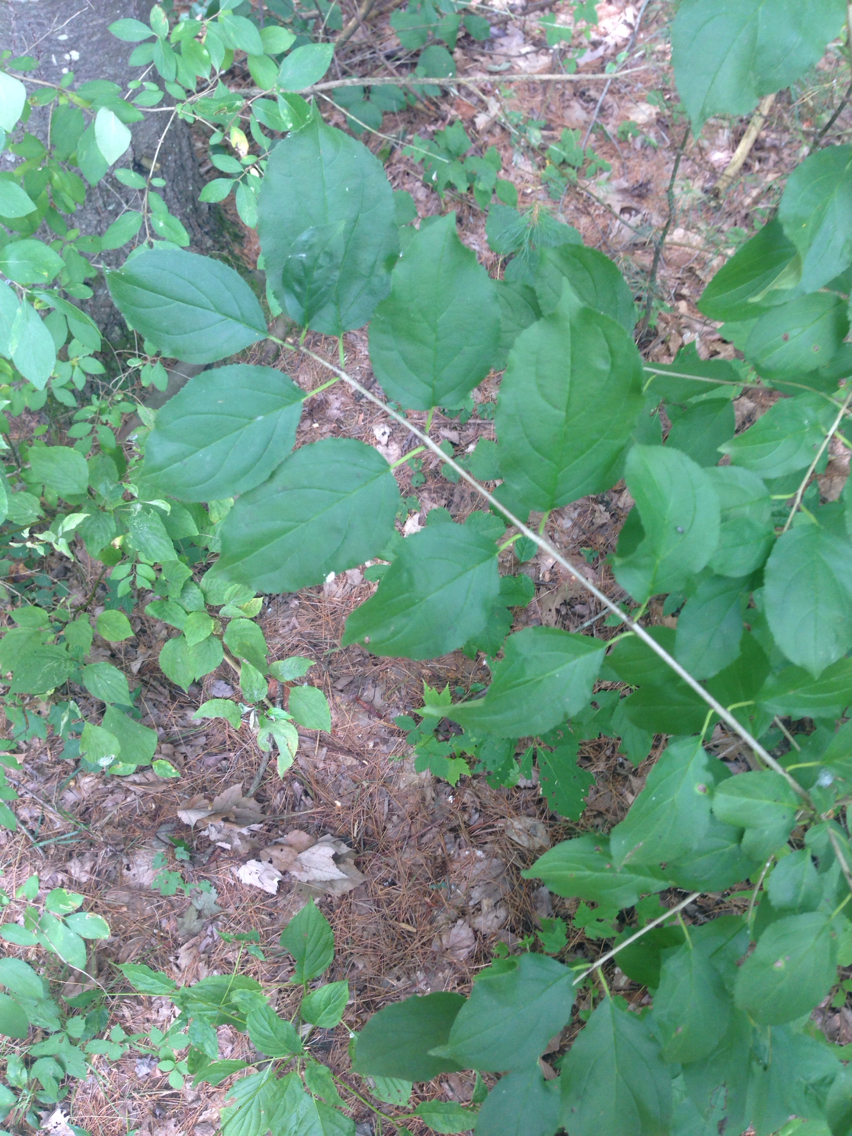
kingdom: Plantae
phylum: Tracheophyta
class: Magnoliopsida
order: Rosales
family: Rhamnaceae
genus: Rhamnus
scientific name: Rhamnus cathartica
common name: Common buckthorn
